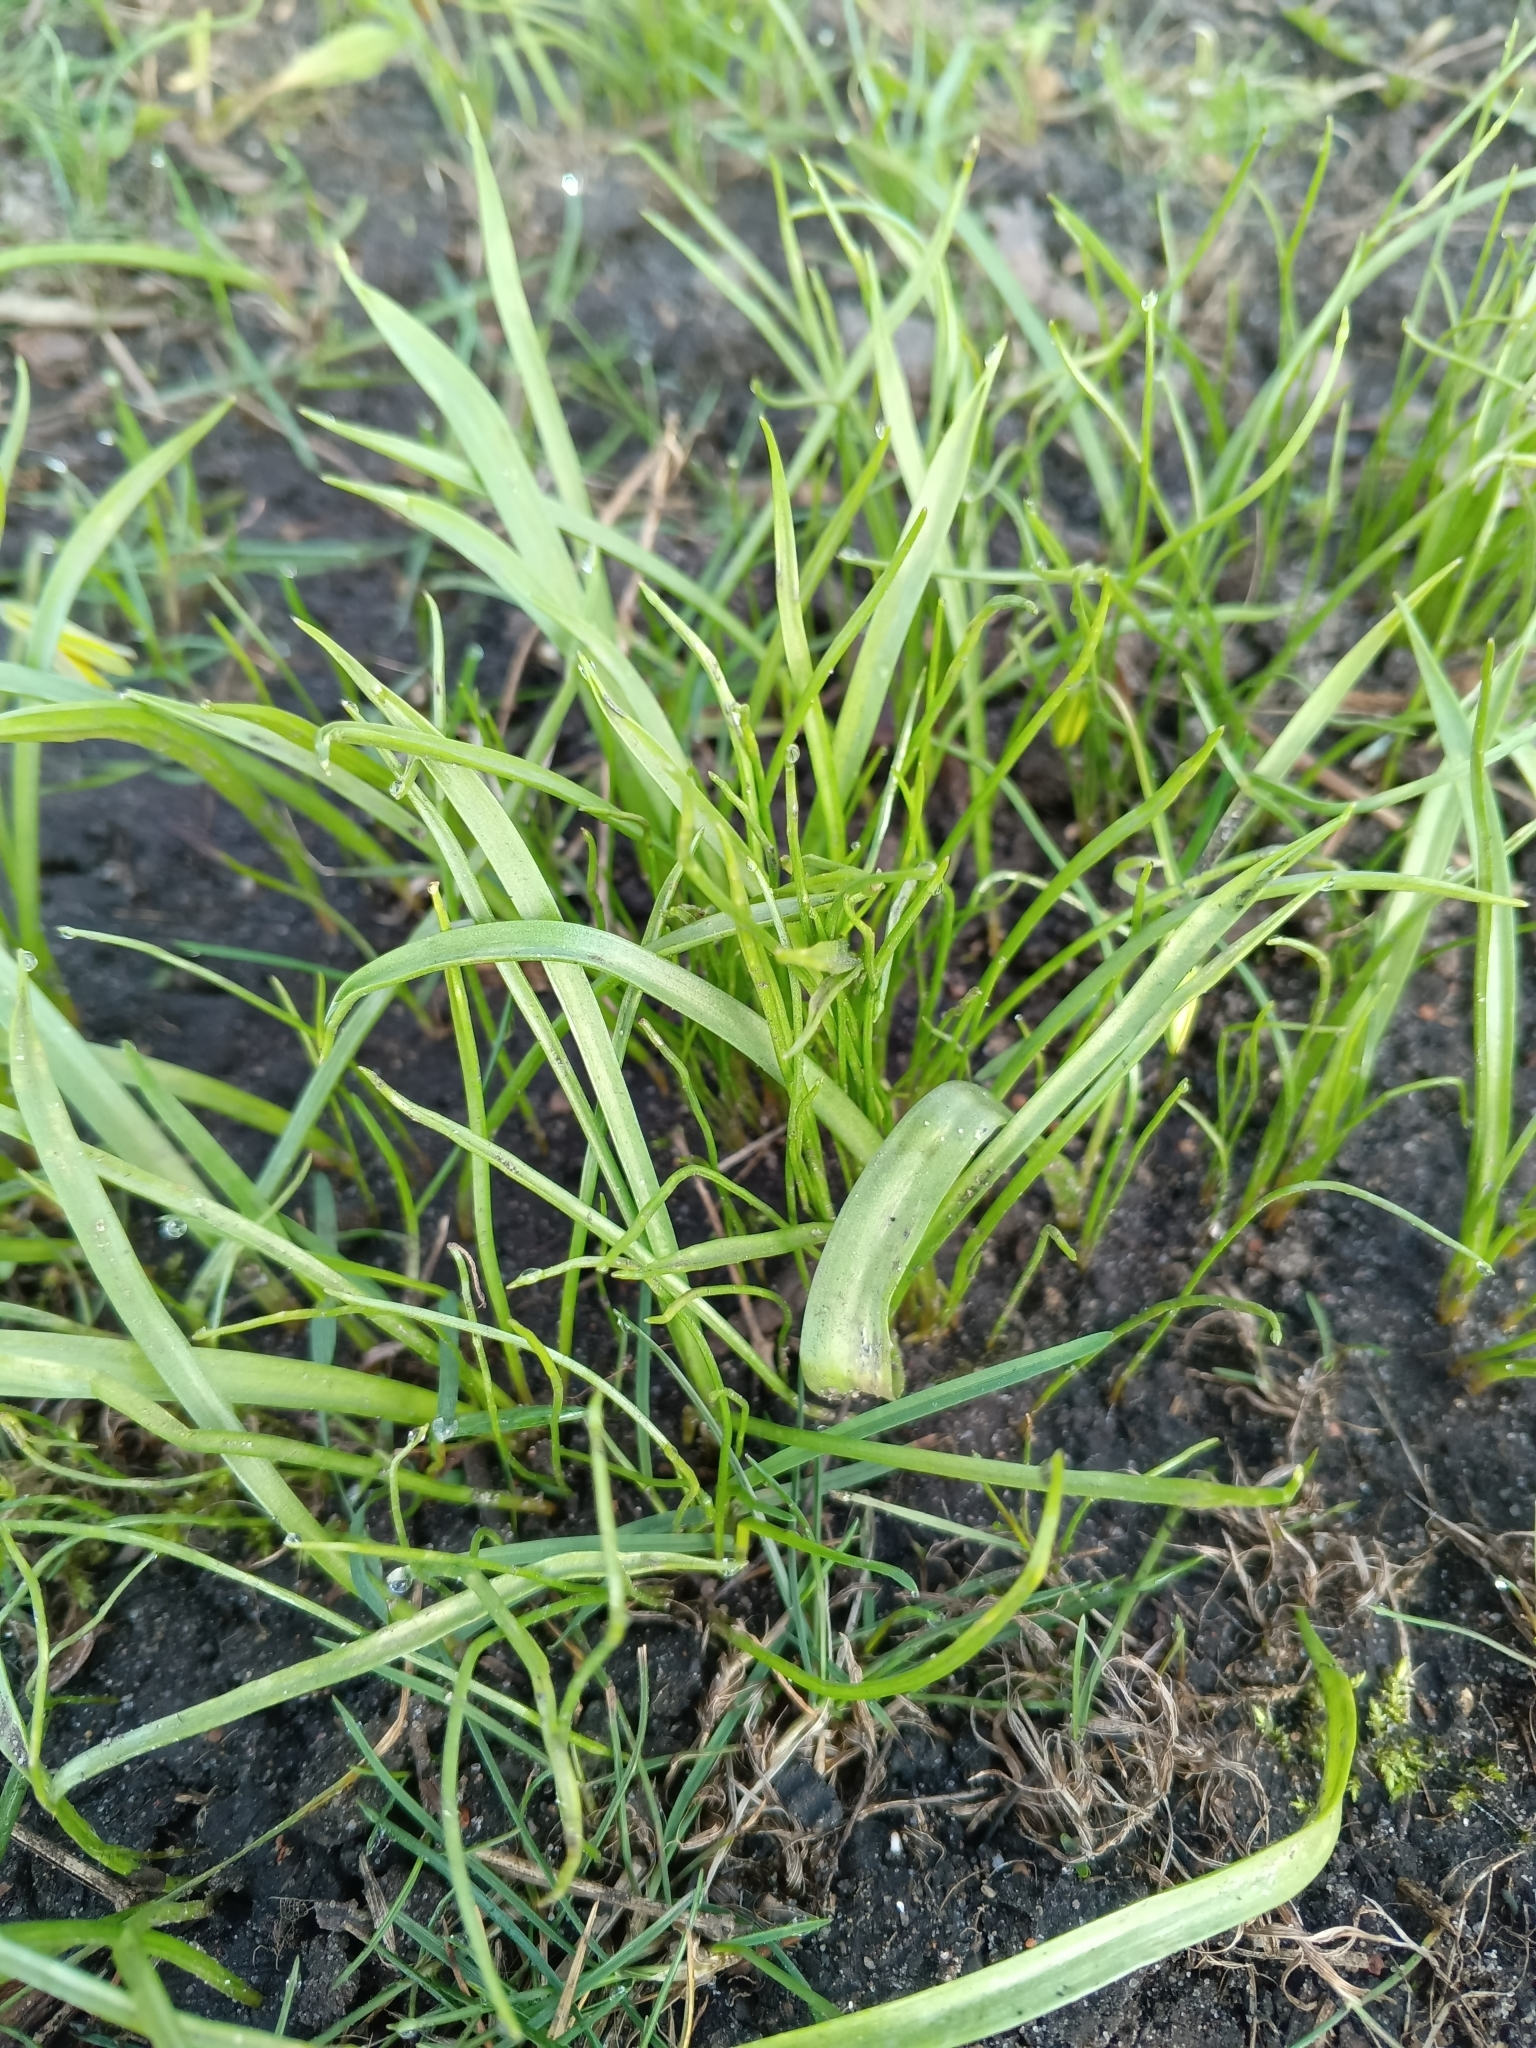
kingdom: Plantae
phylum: Tracheophyta
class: Liliopsida
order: Liliales
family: Liliaceae
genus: Gagea
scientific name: Gagea lutea
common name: Yellow star-of-bethlehem
